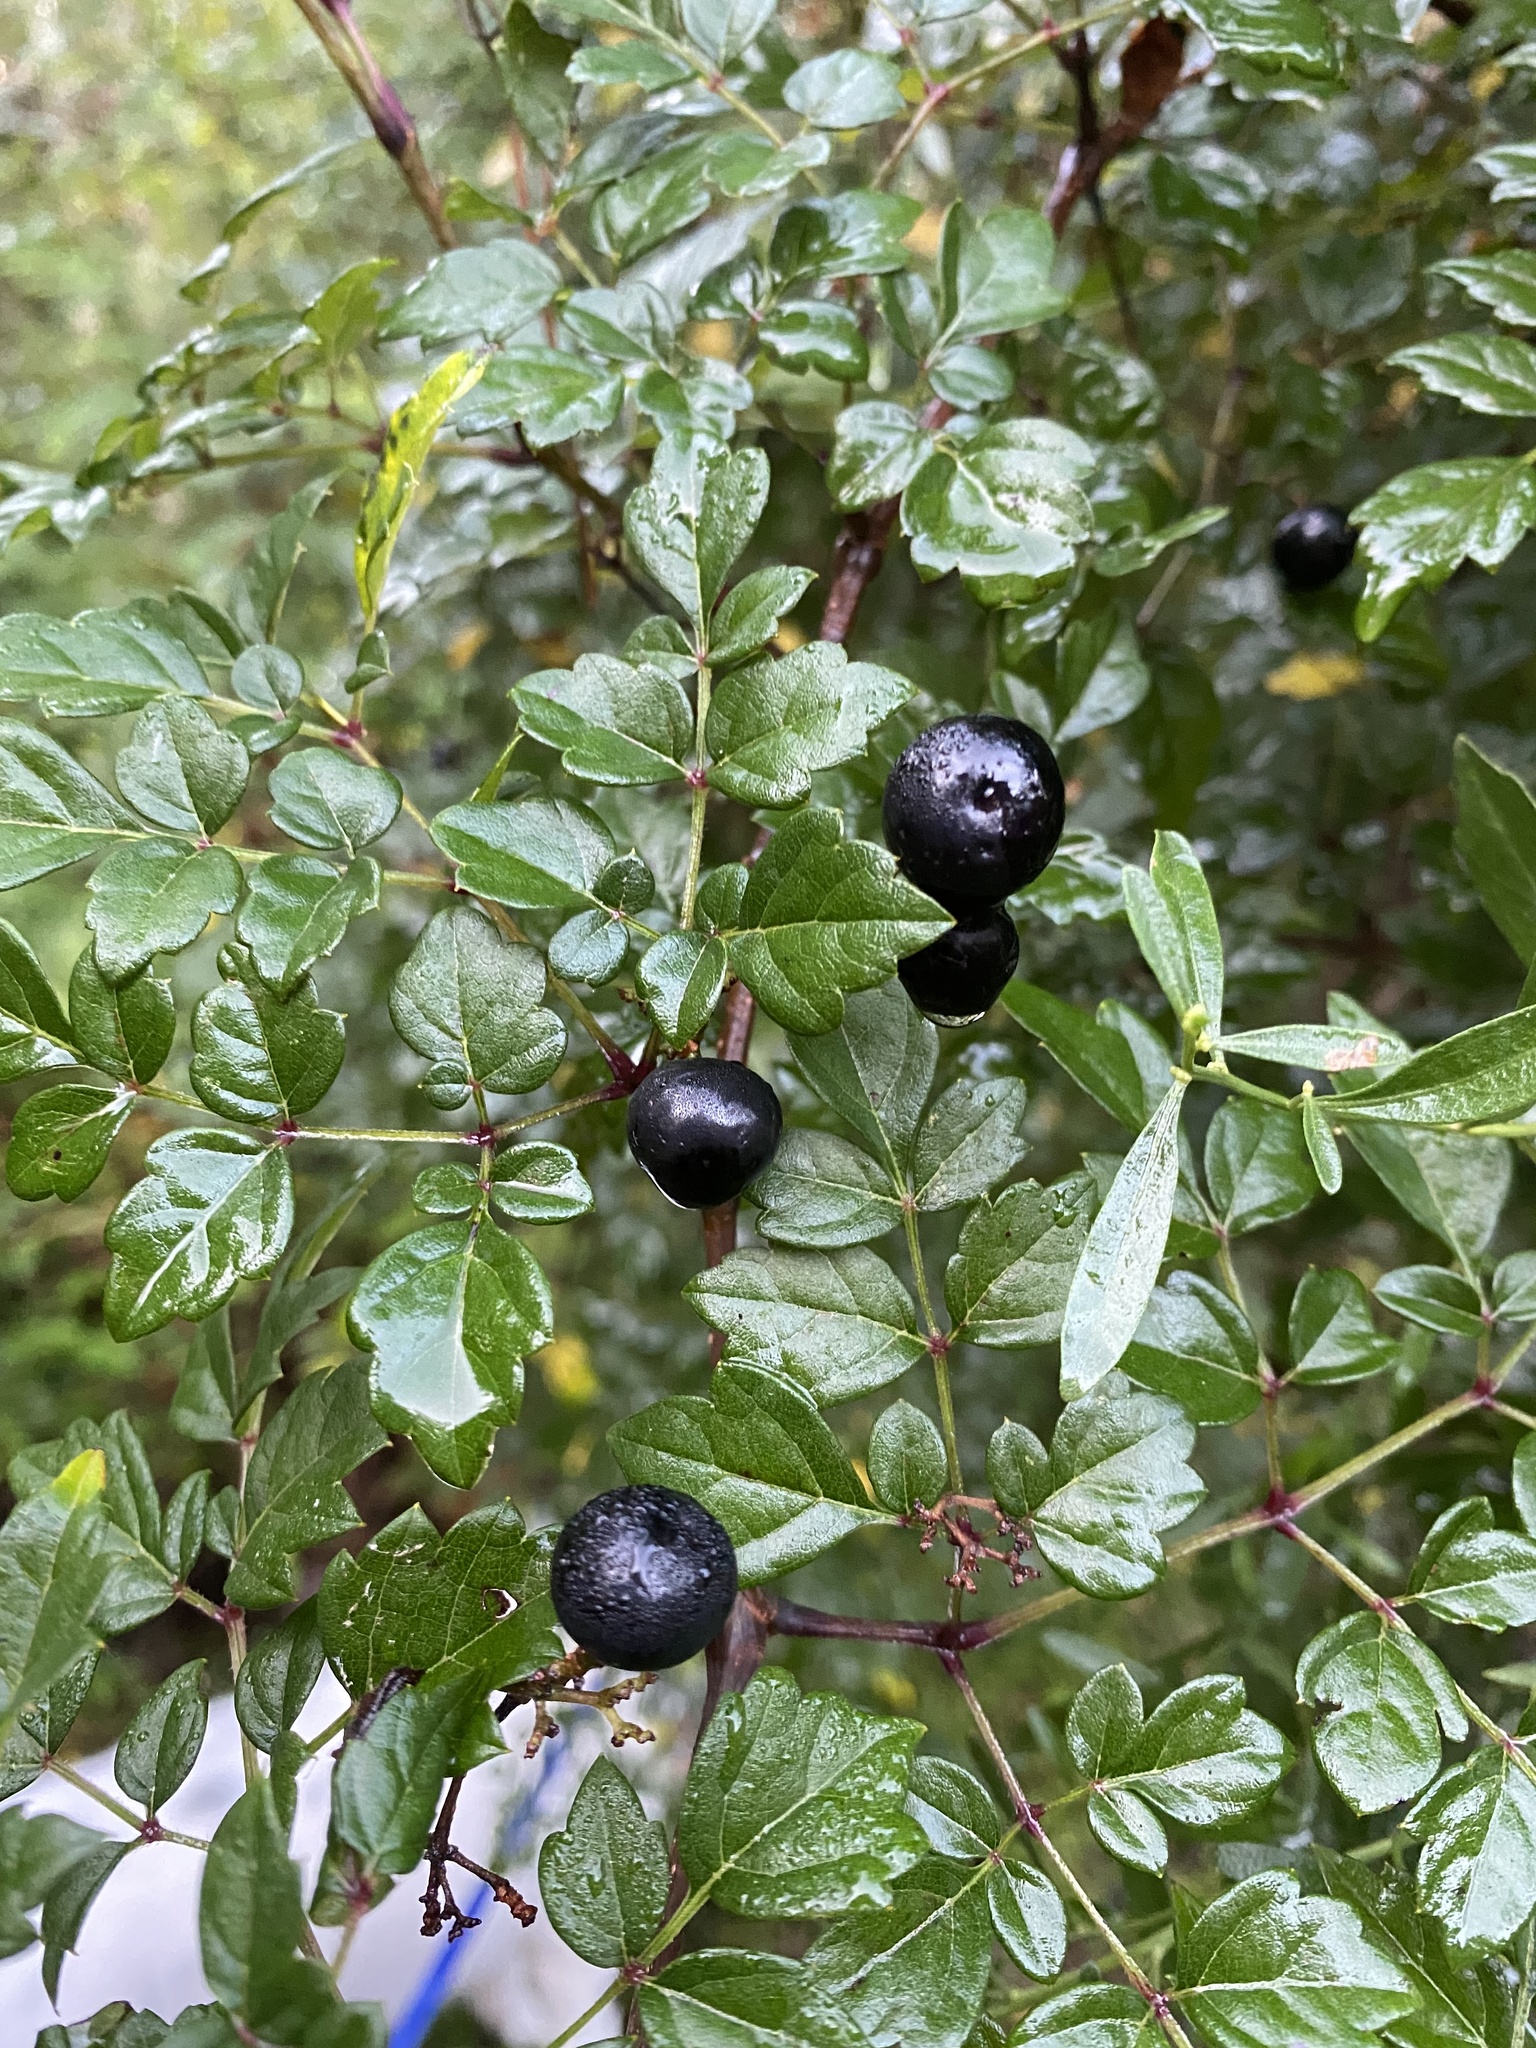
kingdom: Plantae
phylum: Tracheophyta
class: Magnoliopsida
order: Vitales
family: Vitaceae
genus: Nekemias
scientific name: Nekemias arborea
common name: Peppervine
